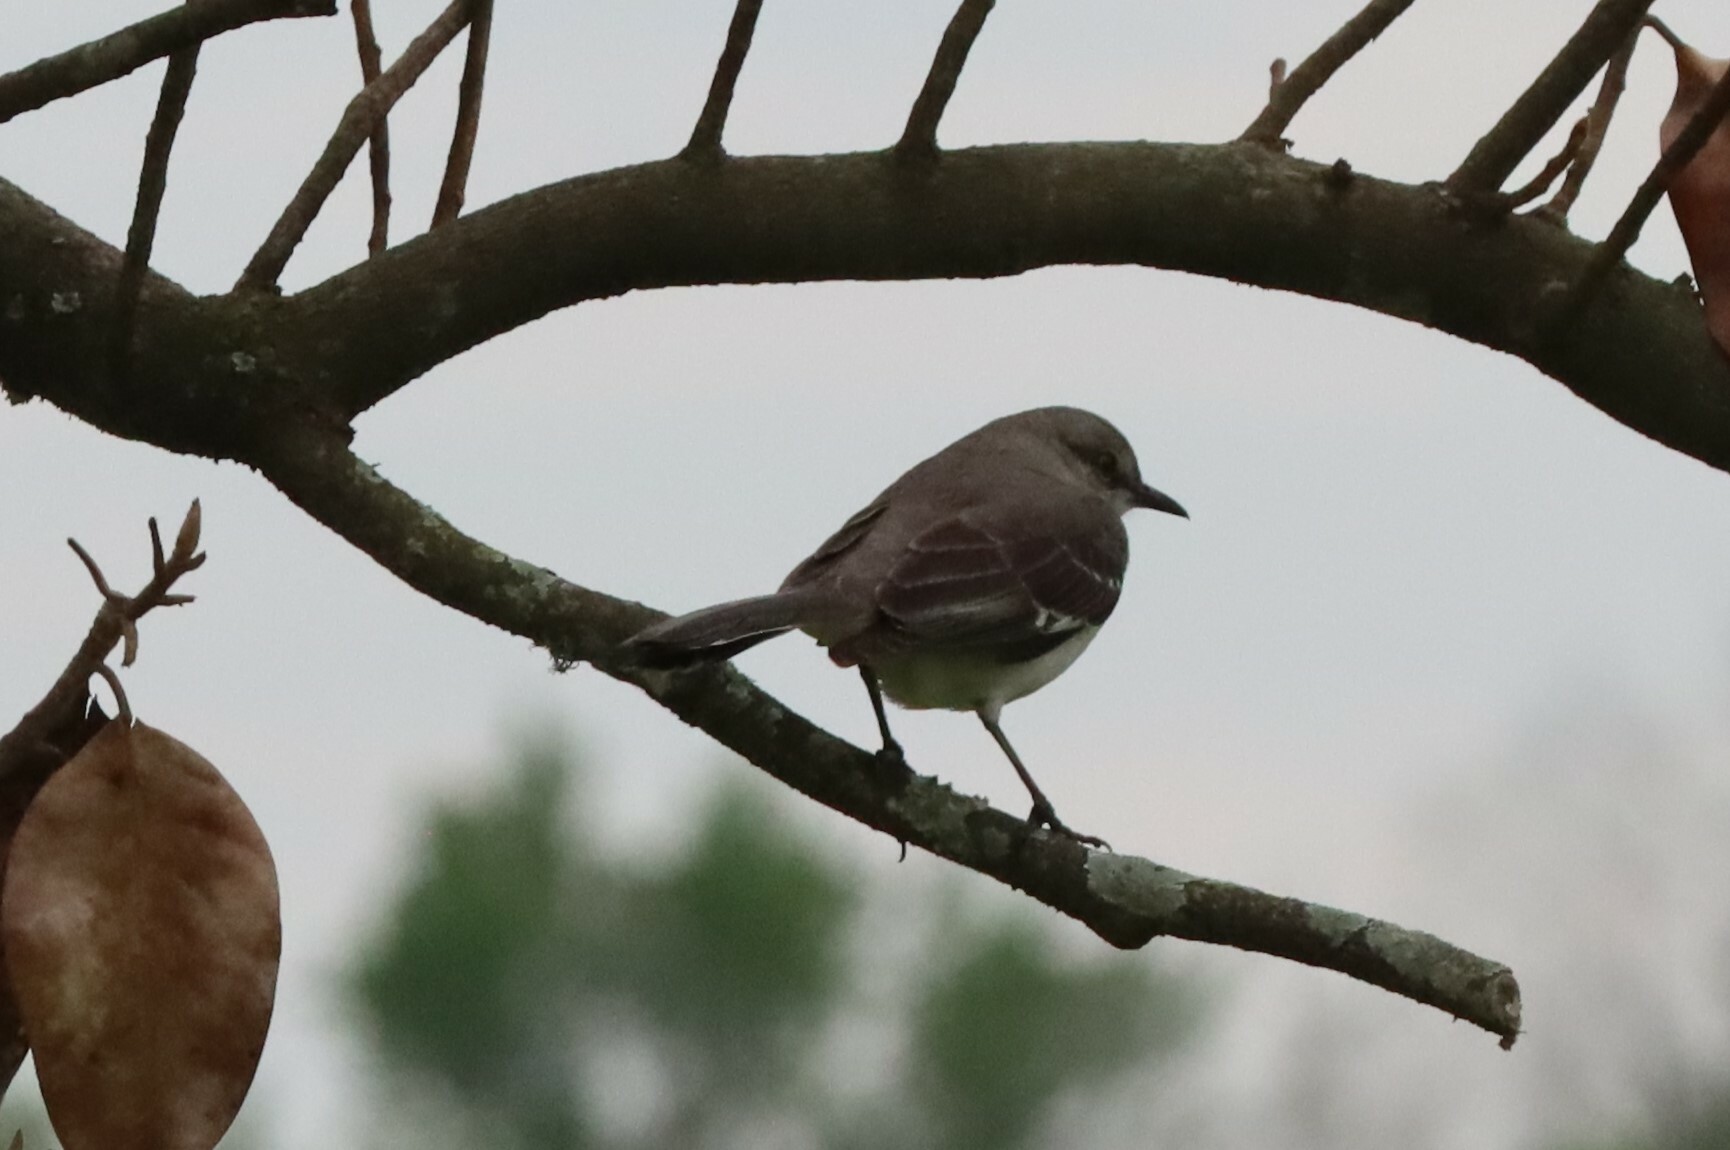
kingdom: Animalia
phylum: Chordata
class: Aves
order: Passeriformes
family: Mimidae
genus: Mimus
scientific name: Mimus polyglottos
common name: Northern mockingbird
